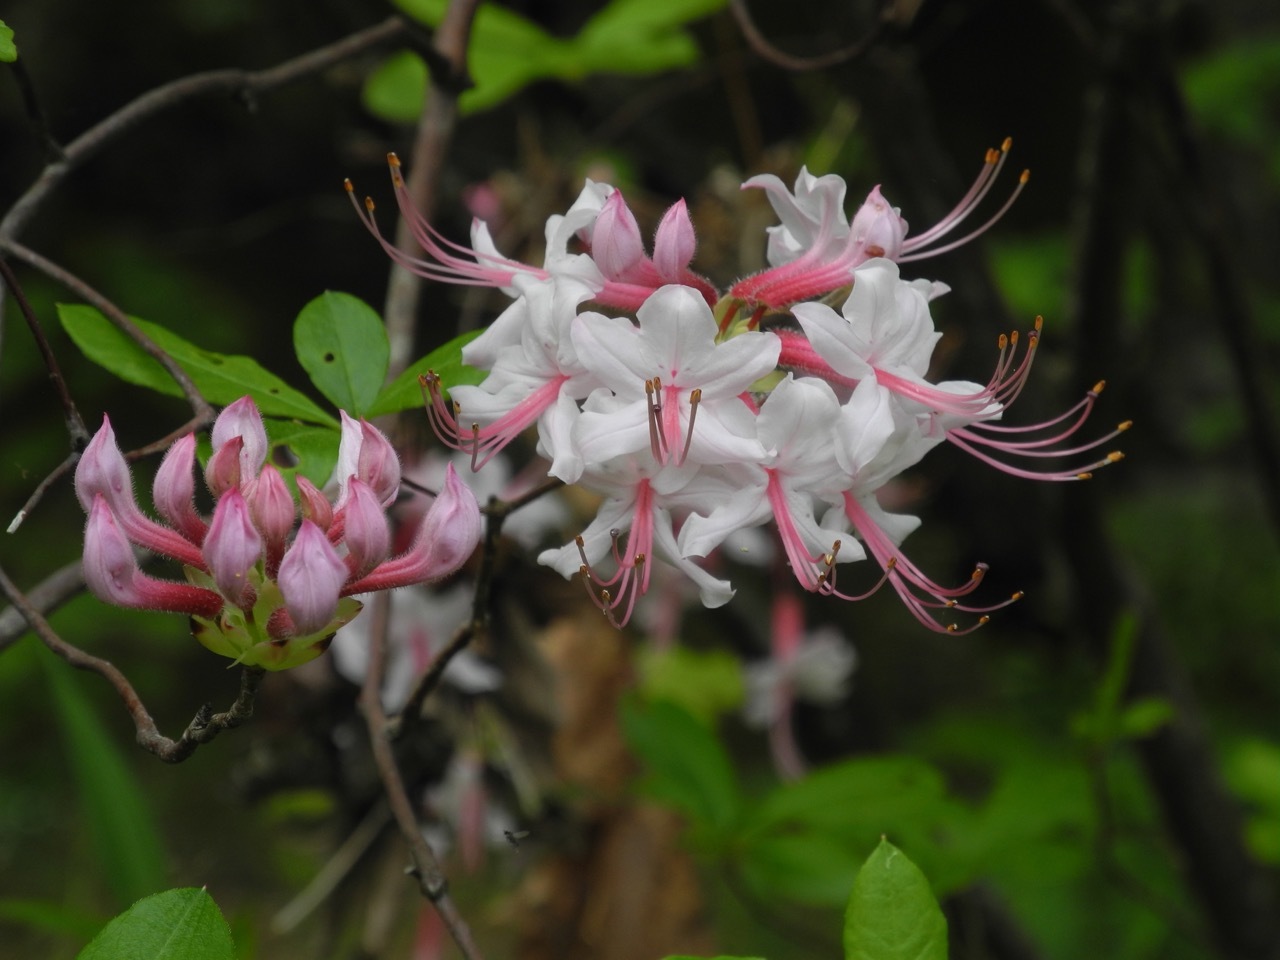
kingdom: Plantae
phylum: Tracheophyta
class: Magnoliopsida
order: Ericales
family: Ericaceae
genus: Rhododendron
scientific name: Rhododendron periclymenoides
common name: Election-pink
